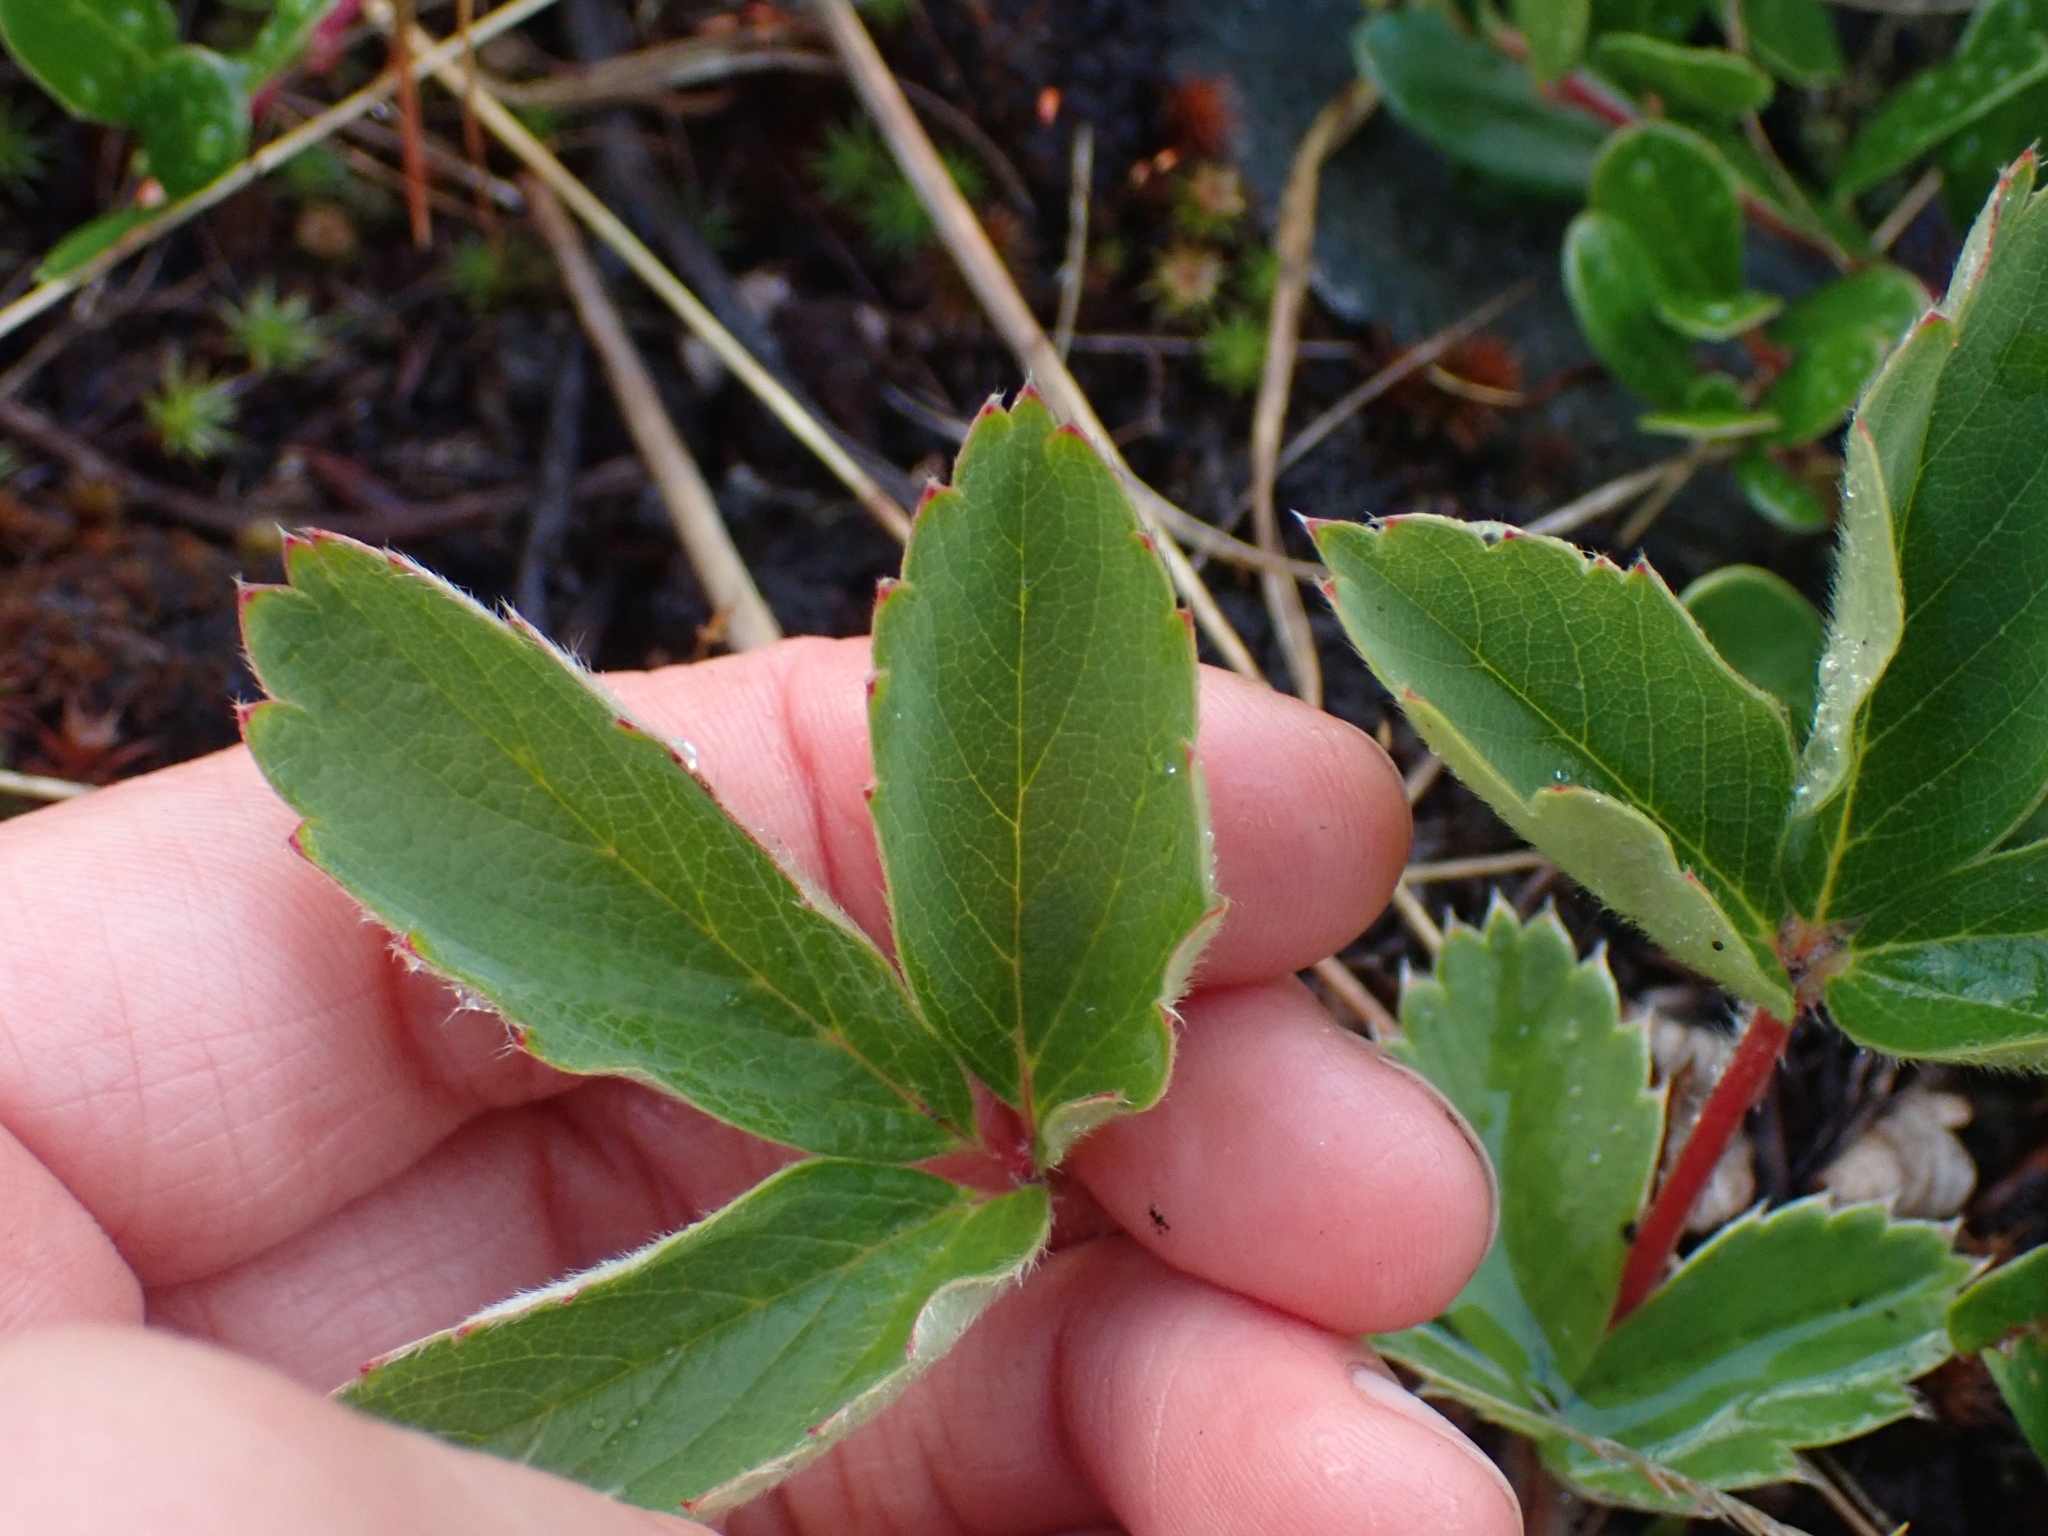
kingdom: Plantae
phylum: Tracheophyta
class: Magnoliopsida
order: Rosales
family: Rosaceae
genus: Fragaria
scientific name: Fragaria virginiana
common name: Thickleaved wild strawberry
